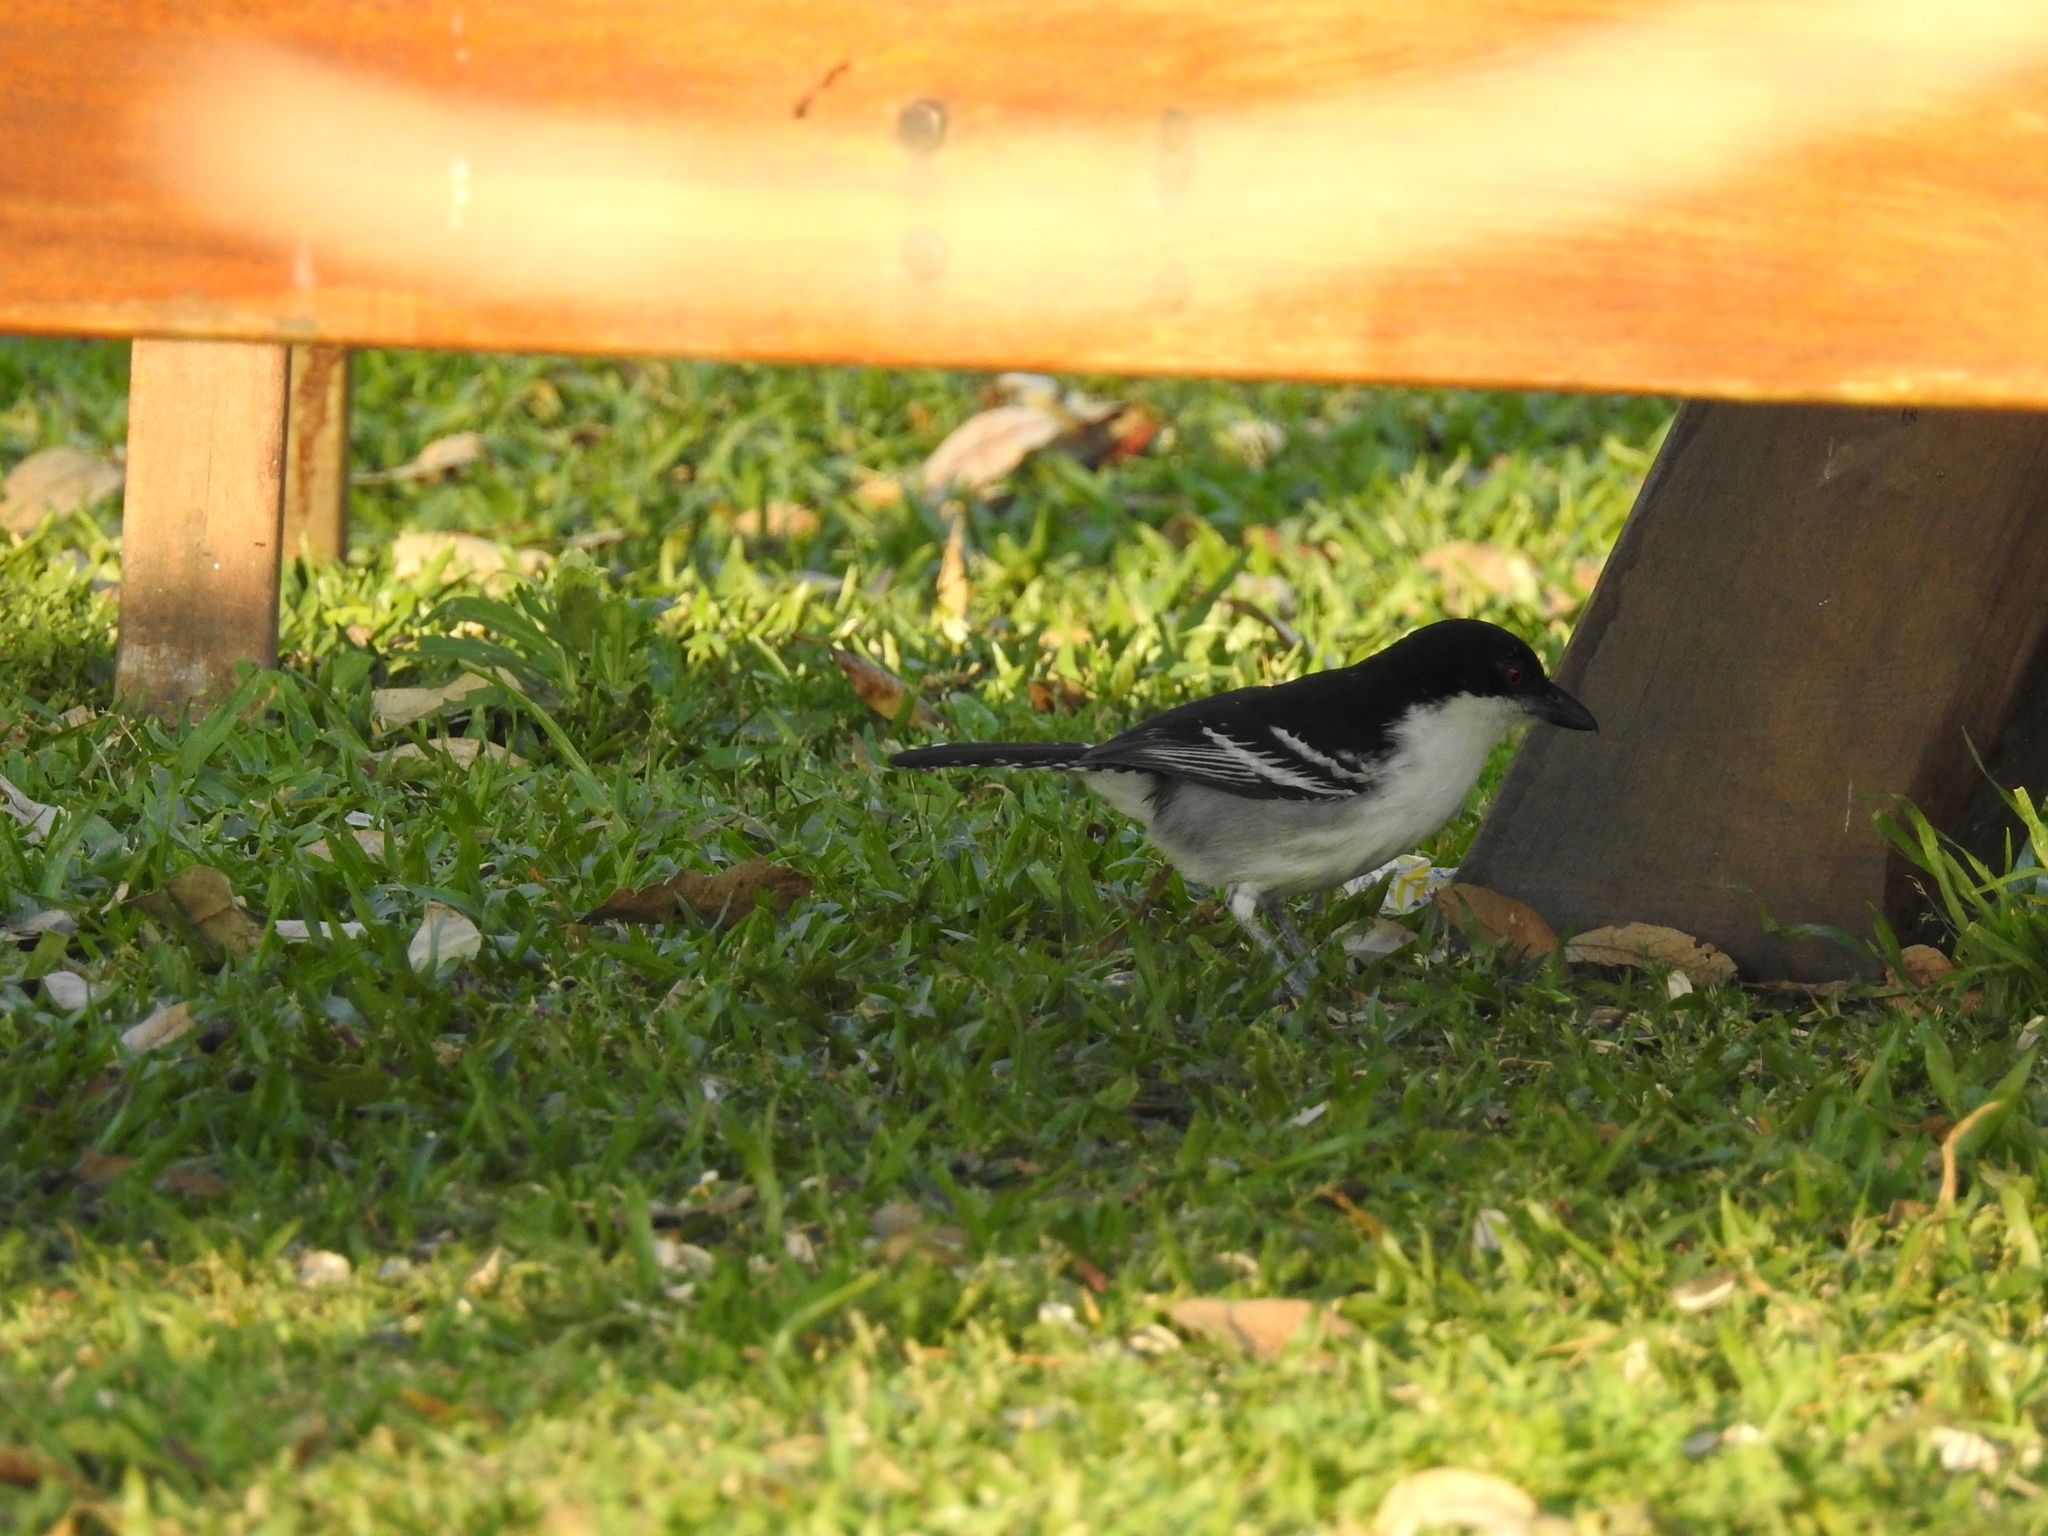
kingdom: Animalia
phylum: Chordata
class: Aves
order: Passeriformes
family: Thamnophilidae
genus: Taraba
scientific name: Taraba major
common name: Great antshrike
